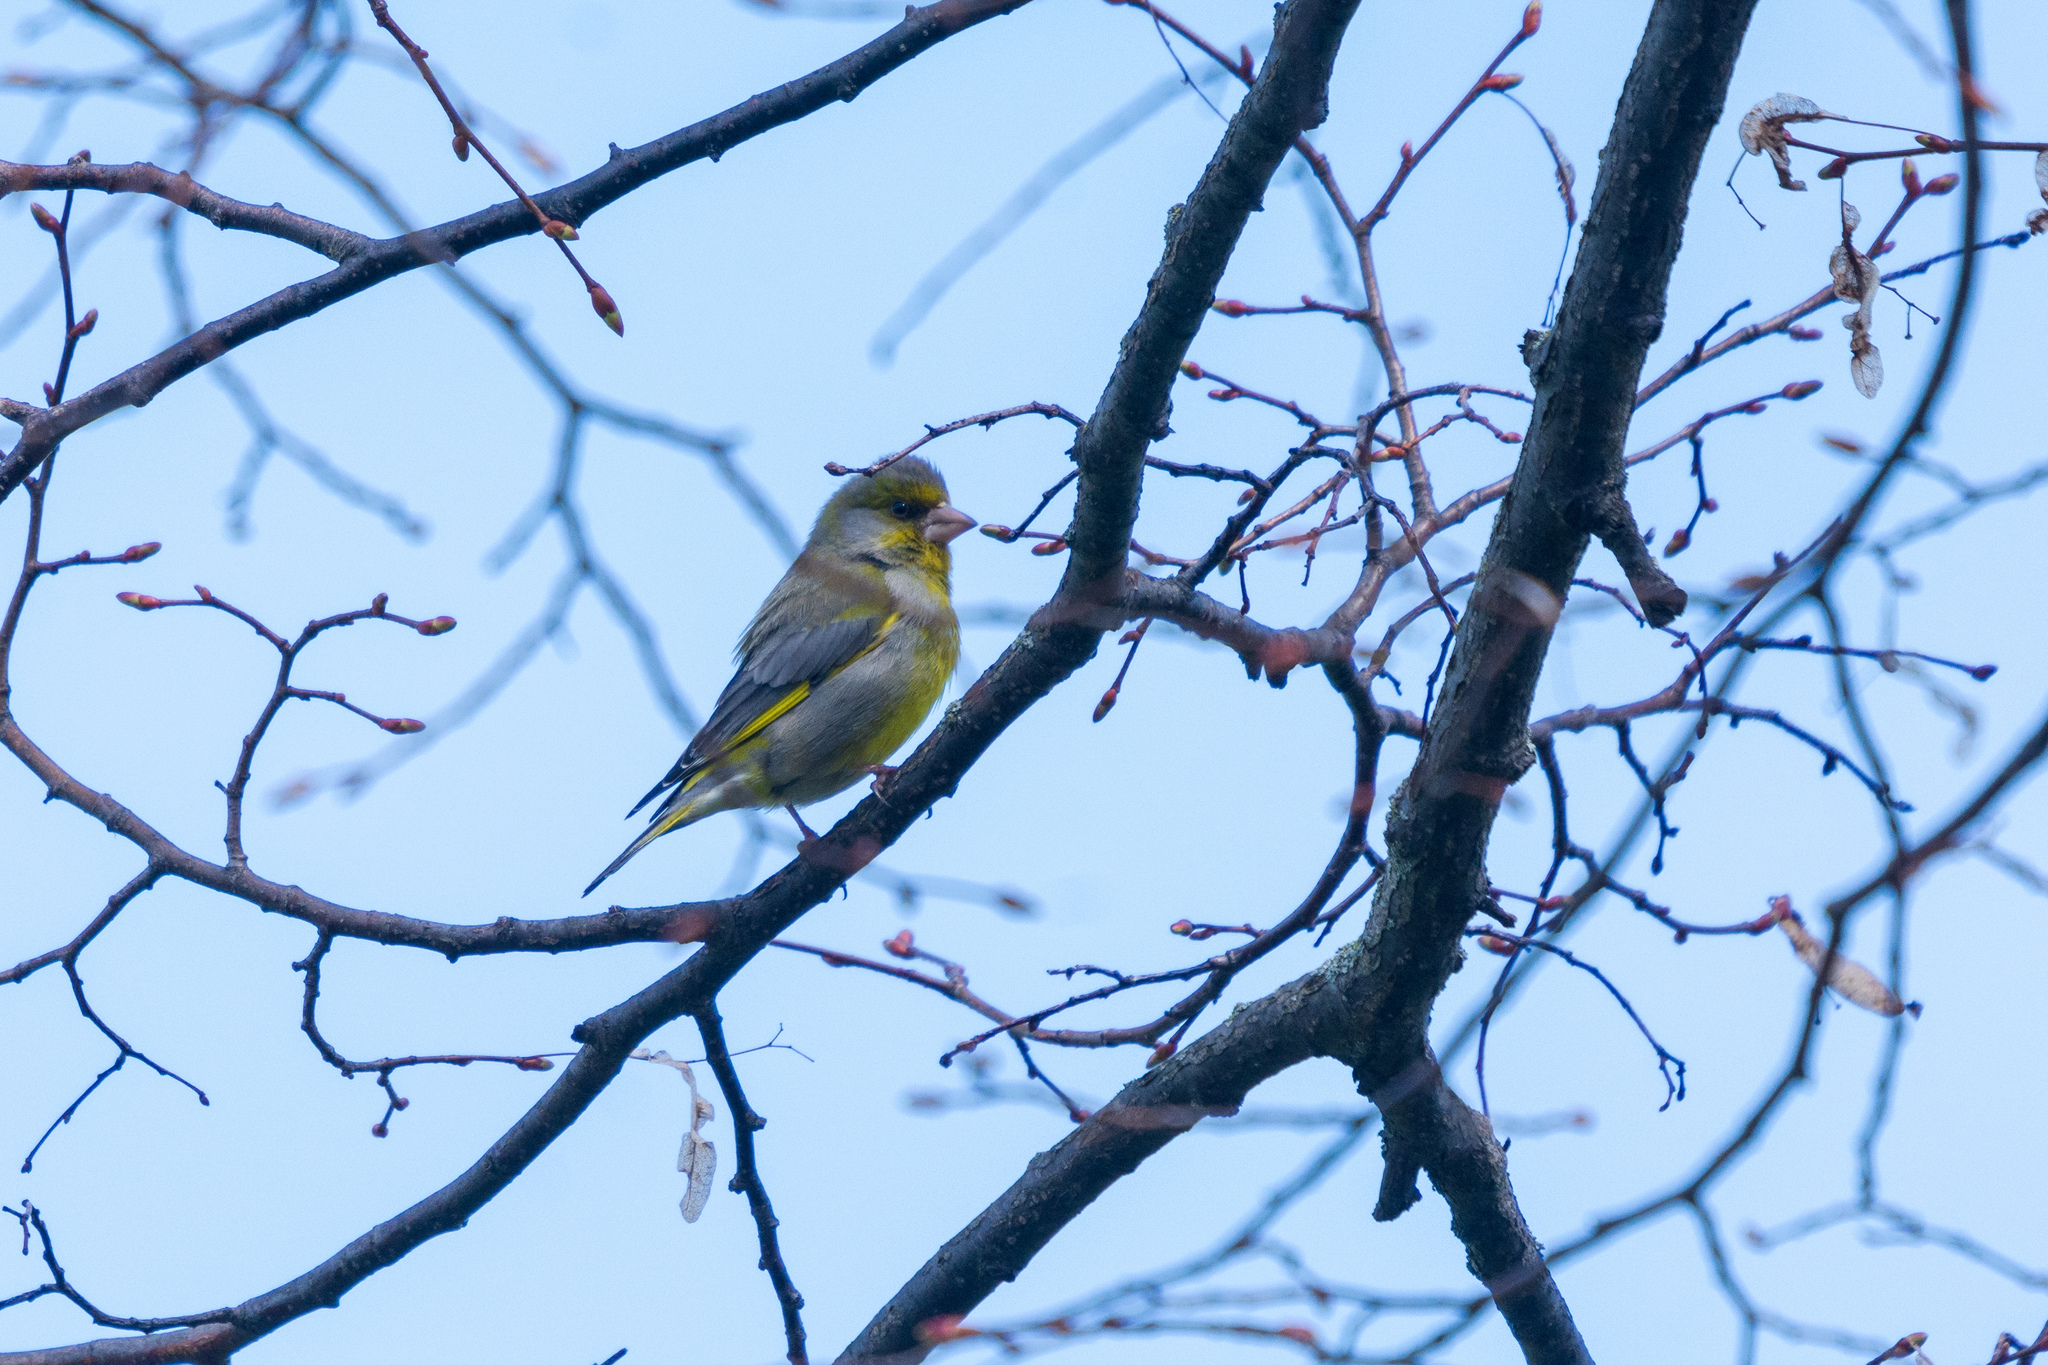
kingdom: Plantae
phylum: Tracheophyta
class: Liliopsida
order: Poales
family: Poaceae
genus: Chloris
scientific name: Chloris chloris
